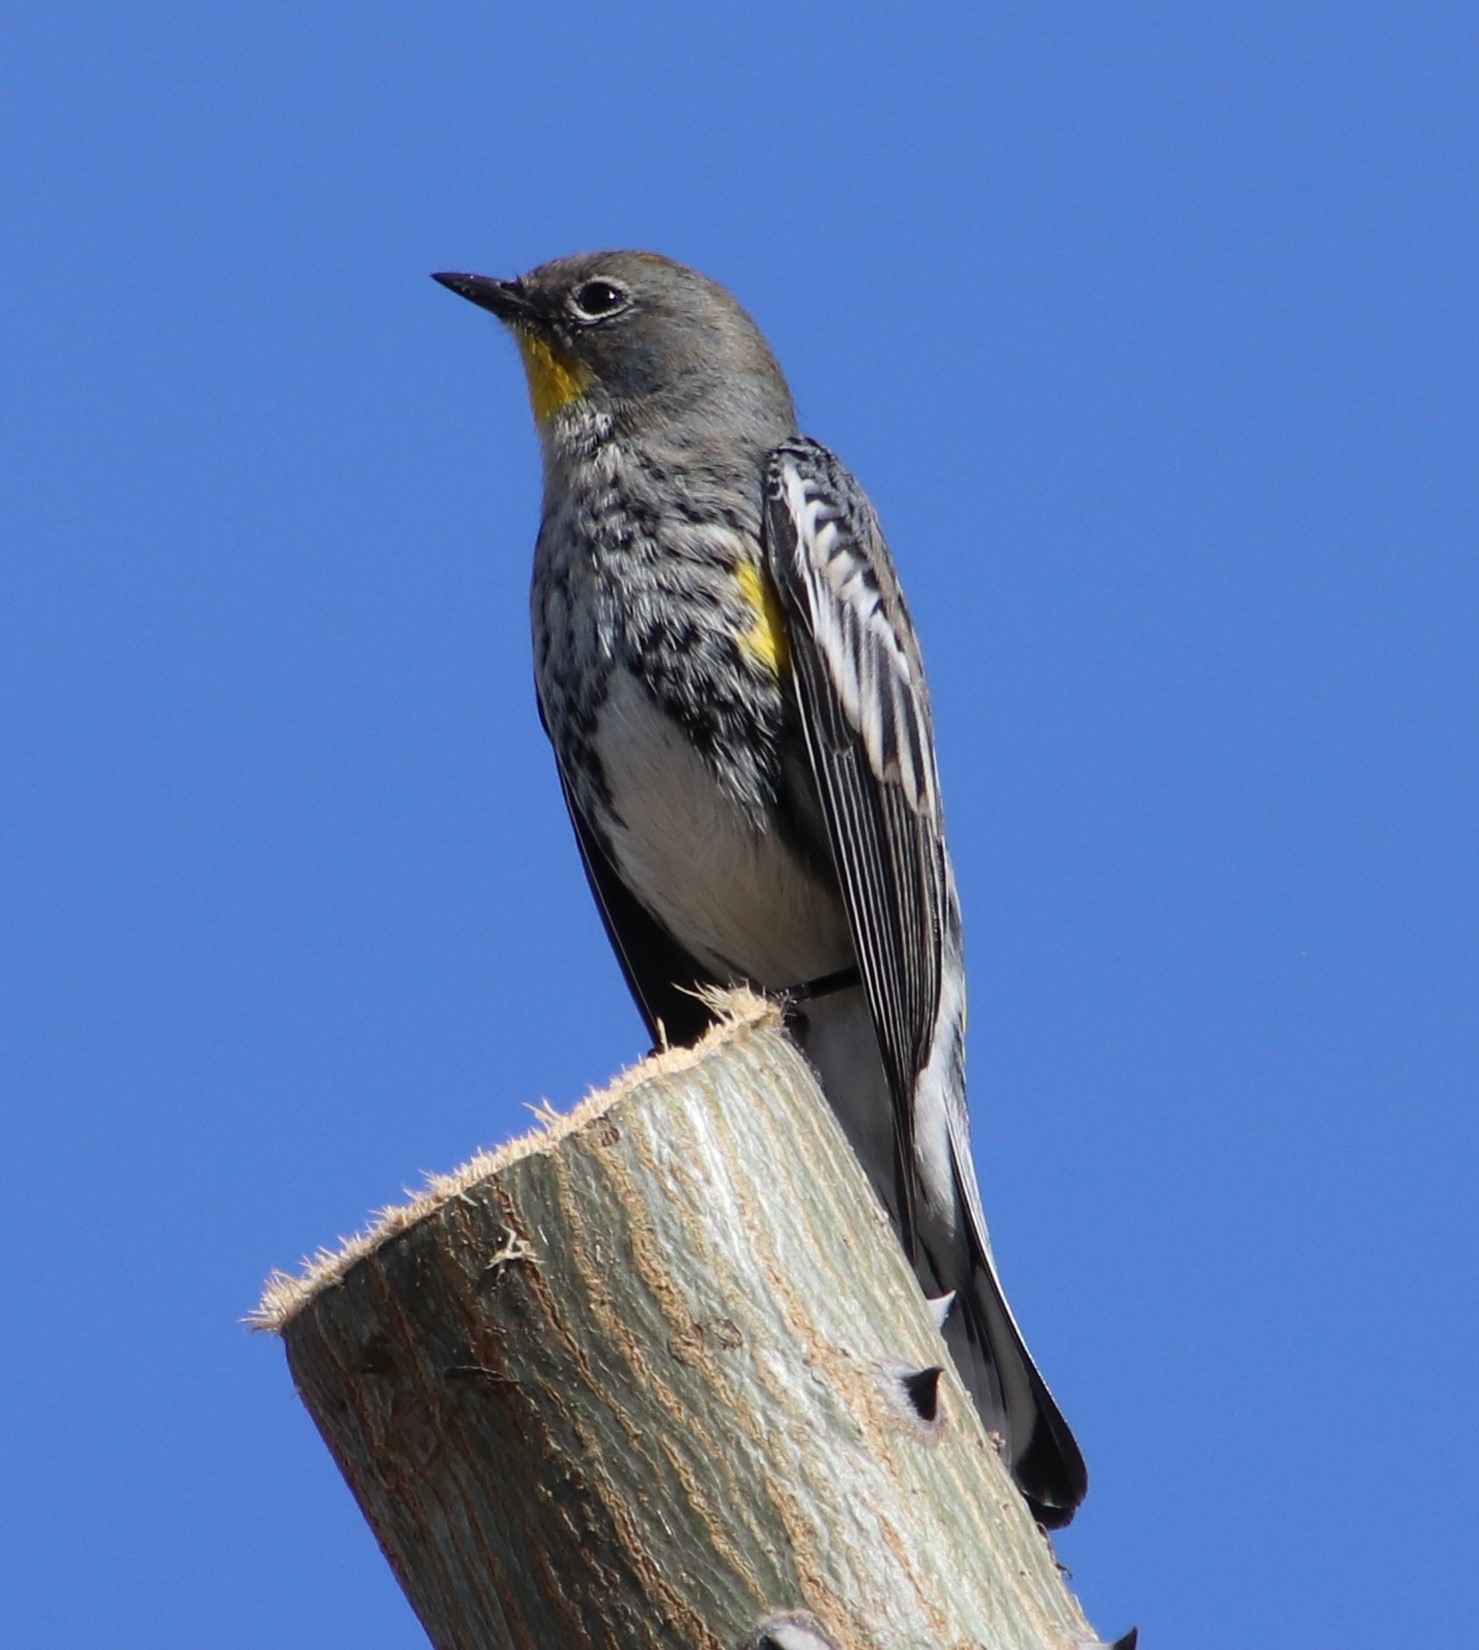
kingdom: Animalia
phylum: Chordata
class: Aves
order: Passeriformes
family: Parulidae
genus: Setophaga
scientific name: Setophaga auduboni
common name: Audubon's warbler
